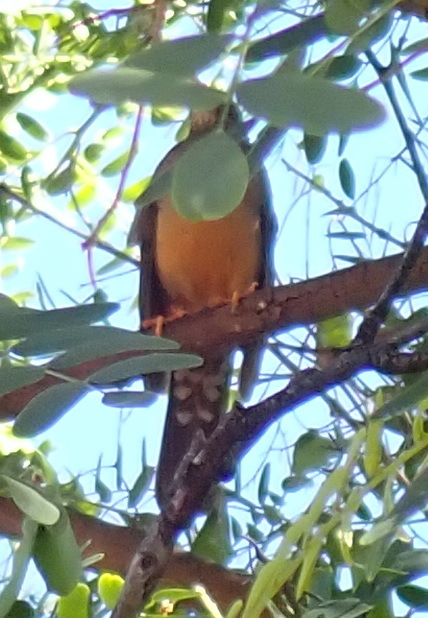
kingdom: Animalia
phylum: Chordata
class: Aves
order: Passeriformes
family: Turdidae
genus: Turdus
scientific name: Turdus olivaceus
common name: Olive thrush
